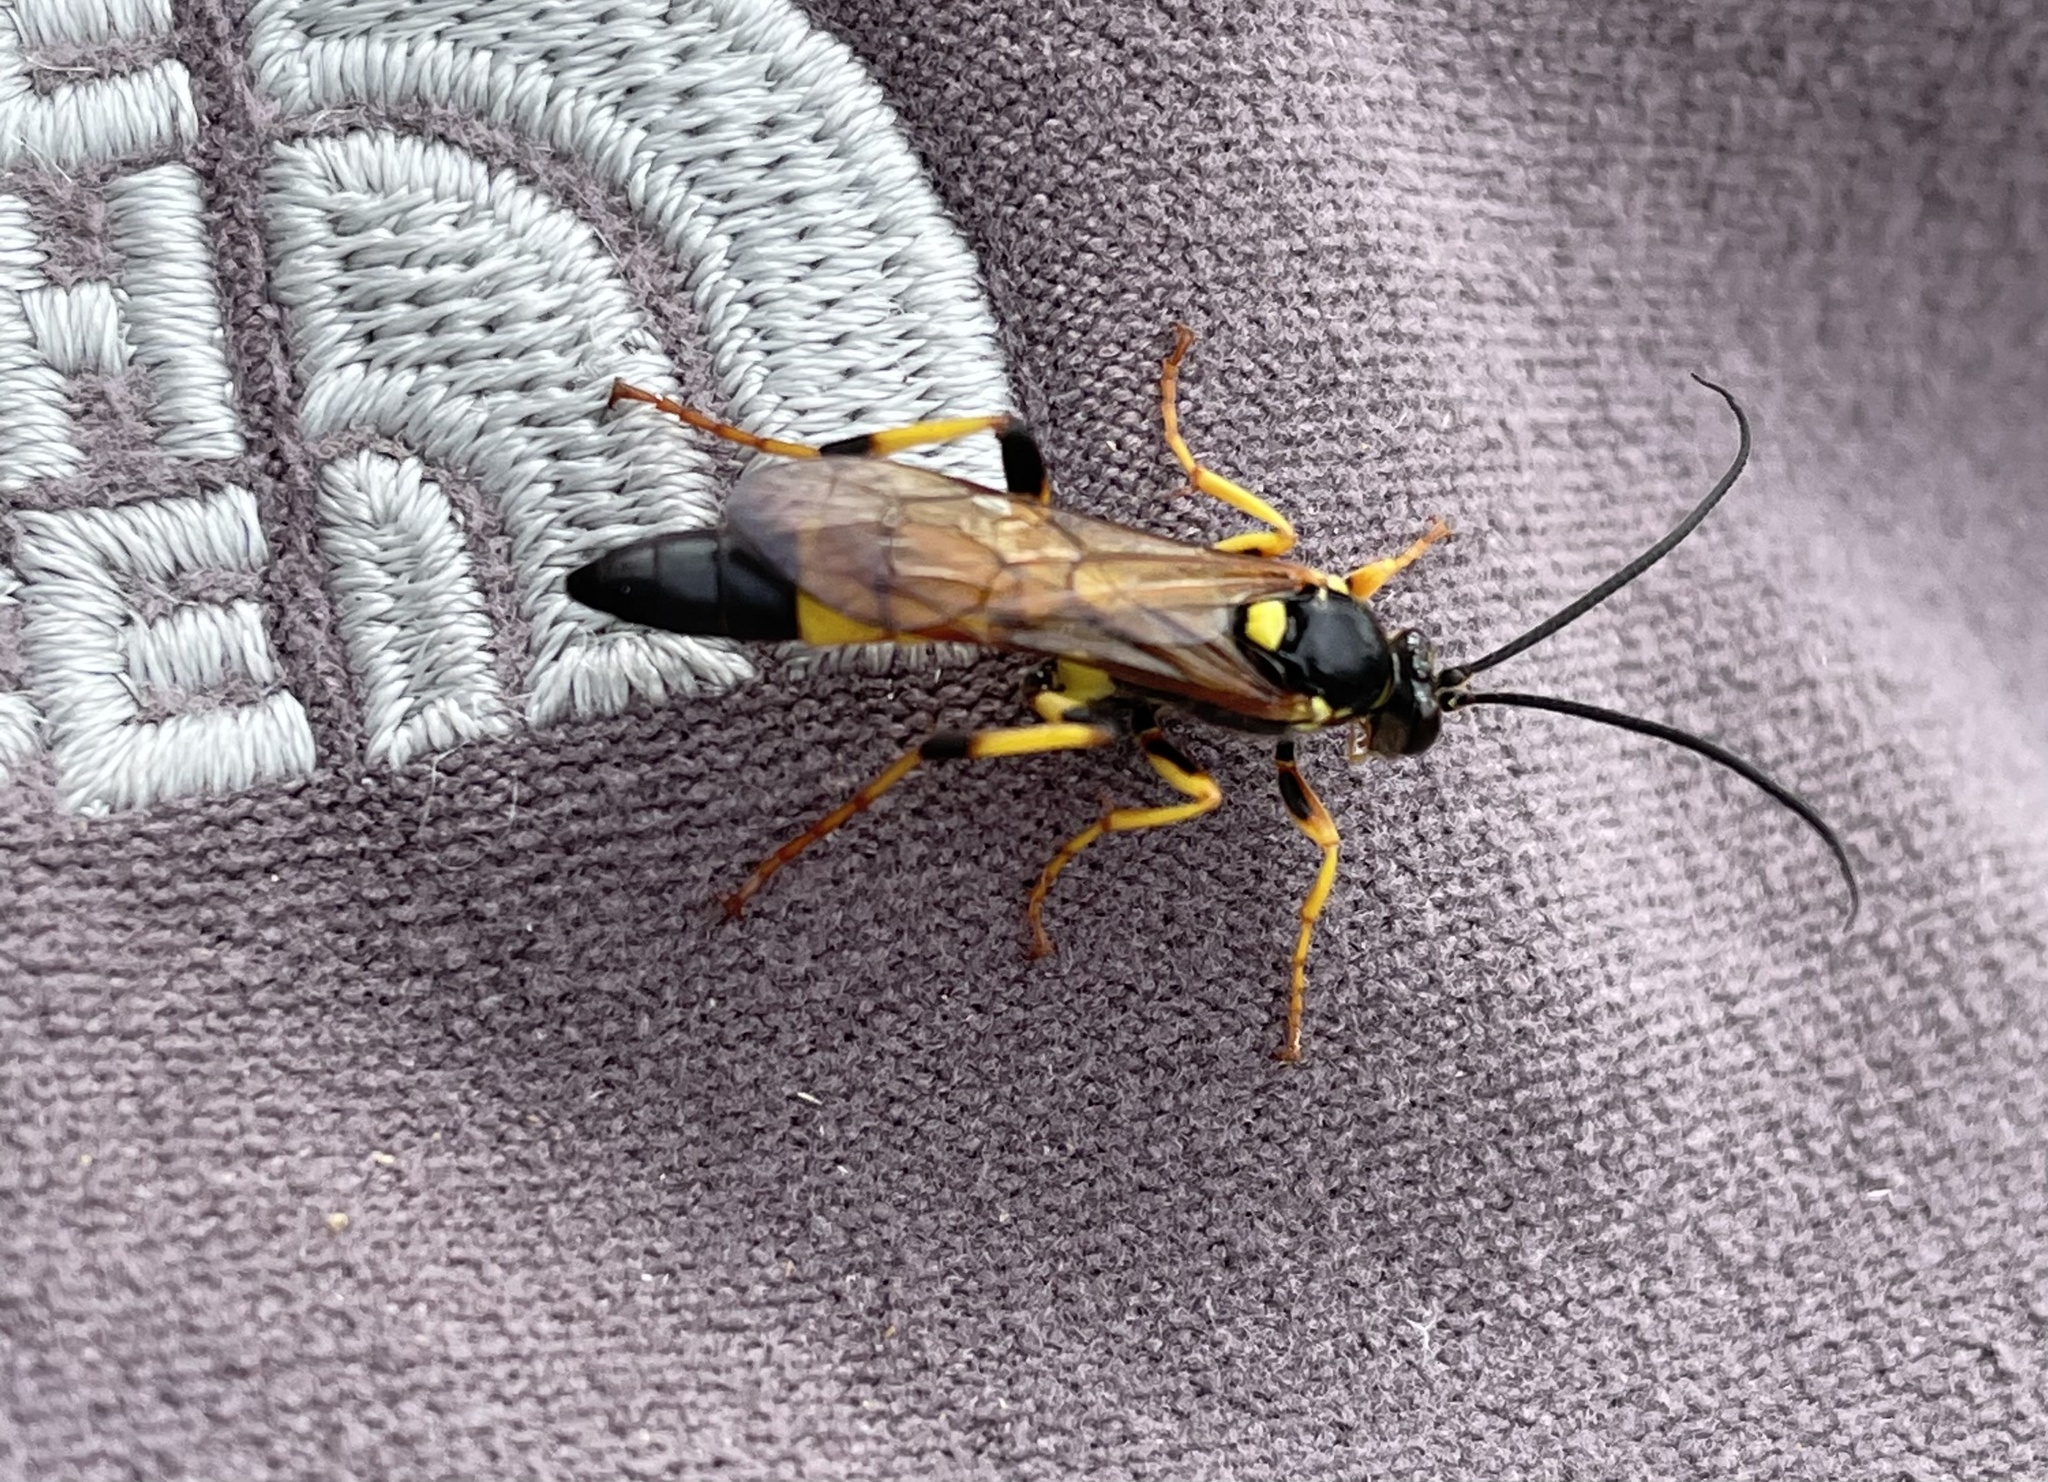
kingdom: Animalia
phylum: Arthropoda
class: Insecta
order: Hymenoptera
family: Ichneumonidae
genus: Ichneumon
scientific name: Ichneumon xanthorius
